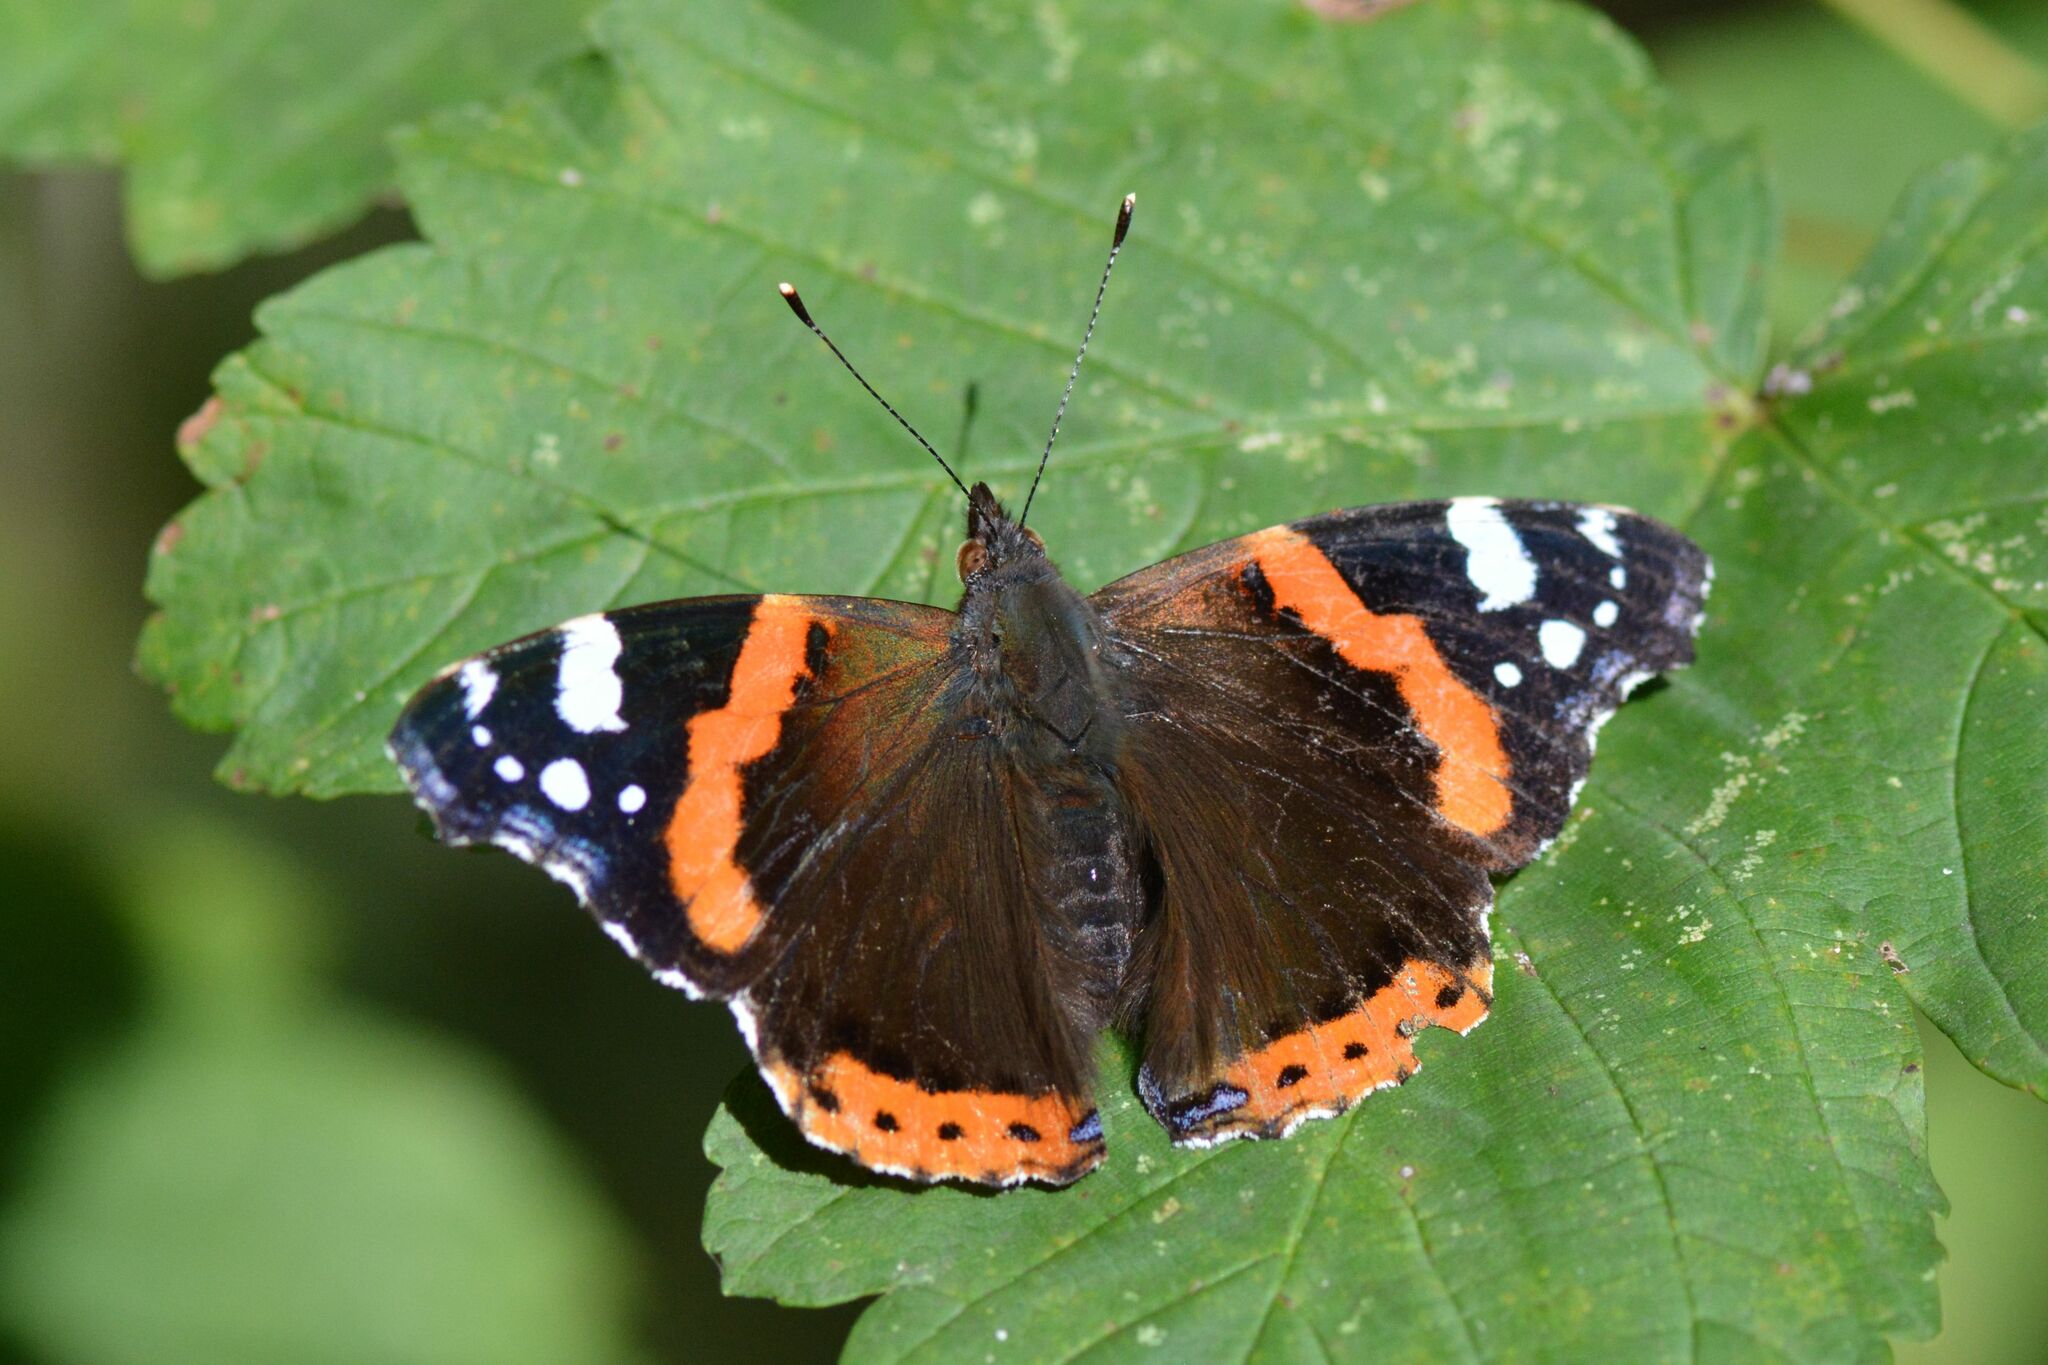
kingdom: Animalia
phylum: Arthropoda
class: Insecta
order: Lepidoptera
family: Nymphalidae
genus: Vanessa
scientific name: Vanessa atalanta
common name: Red admiral
